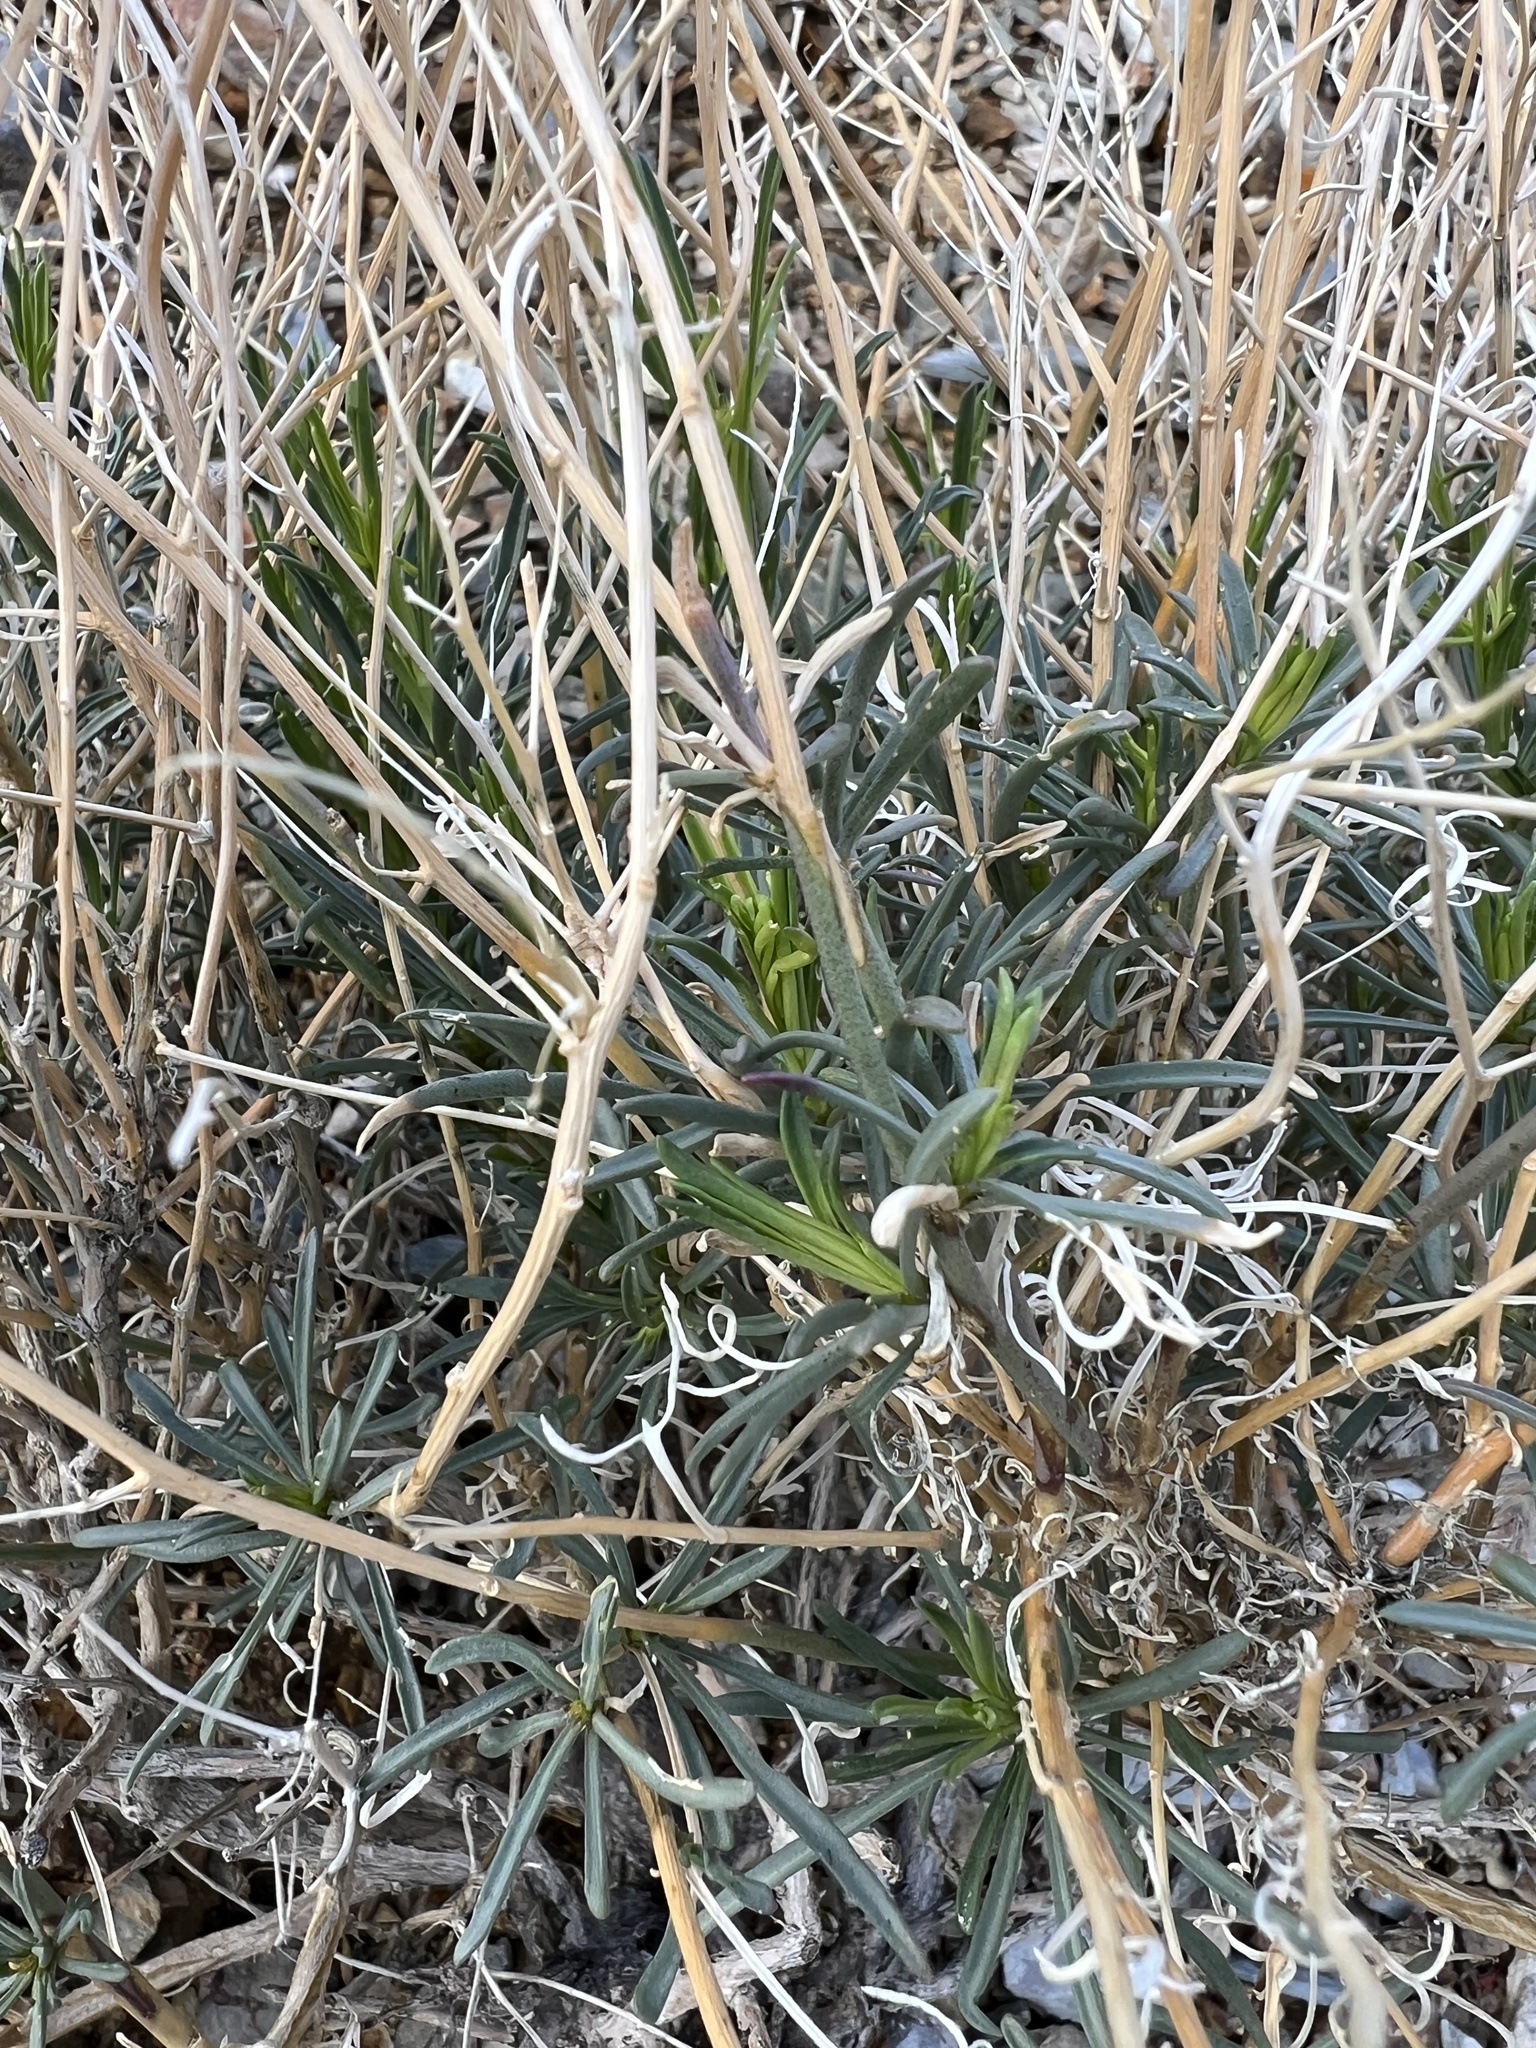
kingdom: Plantae
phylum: Tracheophyta
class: Magnoliopsida
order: Brassicales
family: Brassicaceae
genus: Lepidium
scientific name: Lepidium fremontii
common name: Fremont's pepperwort
